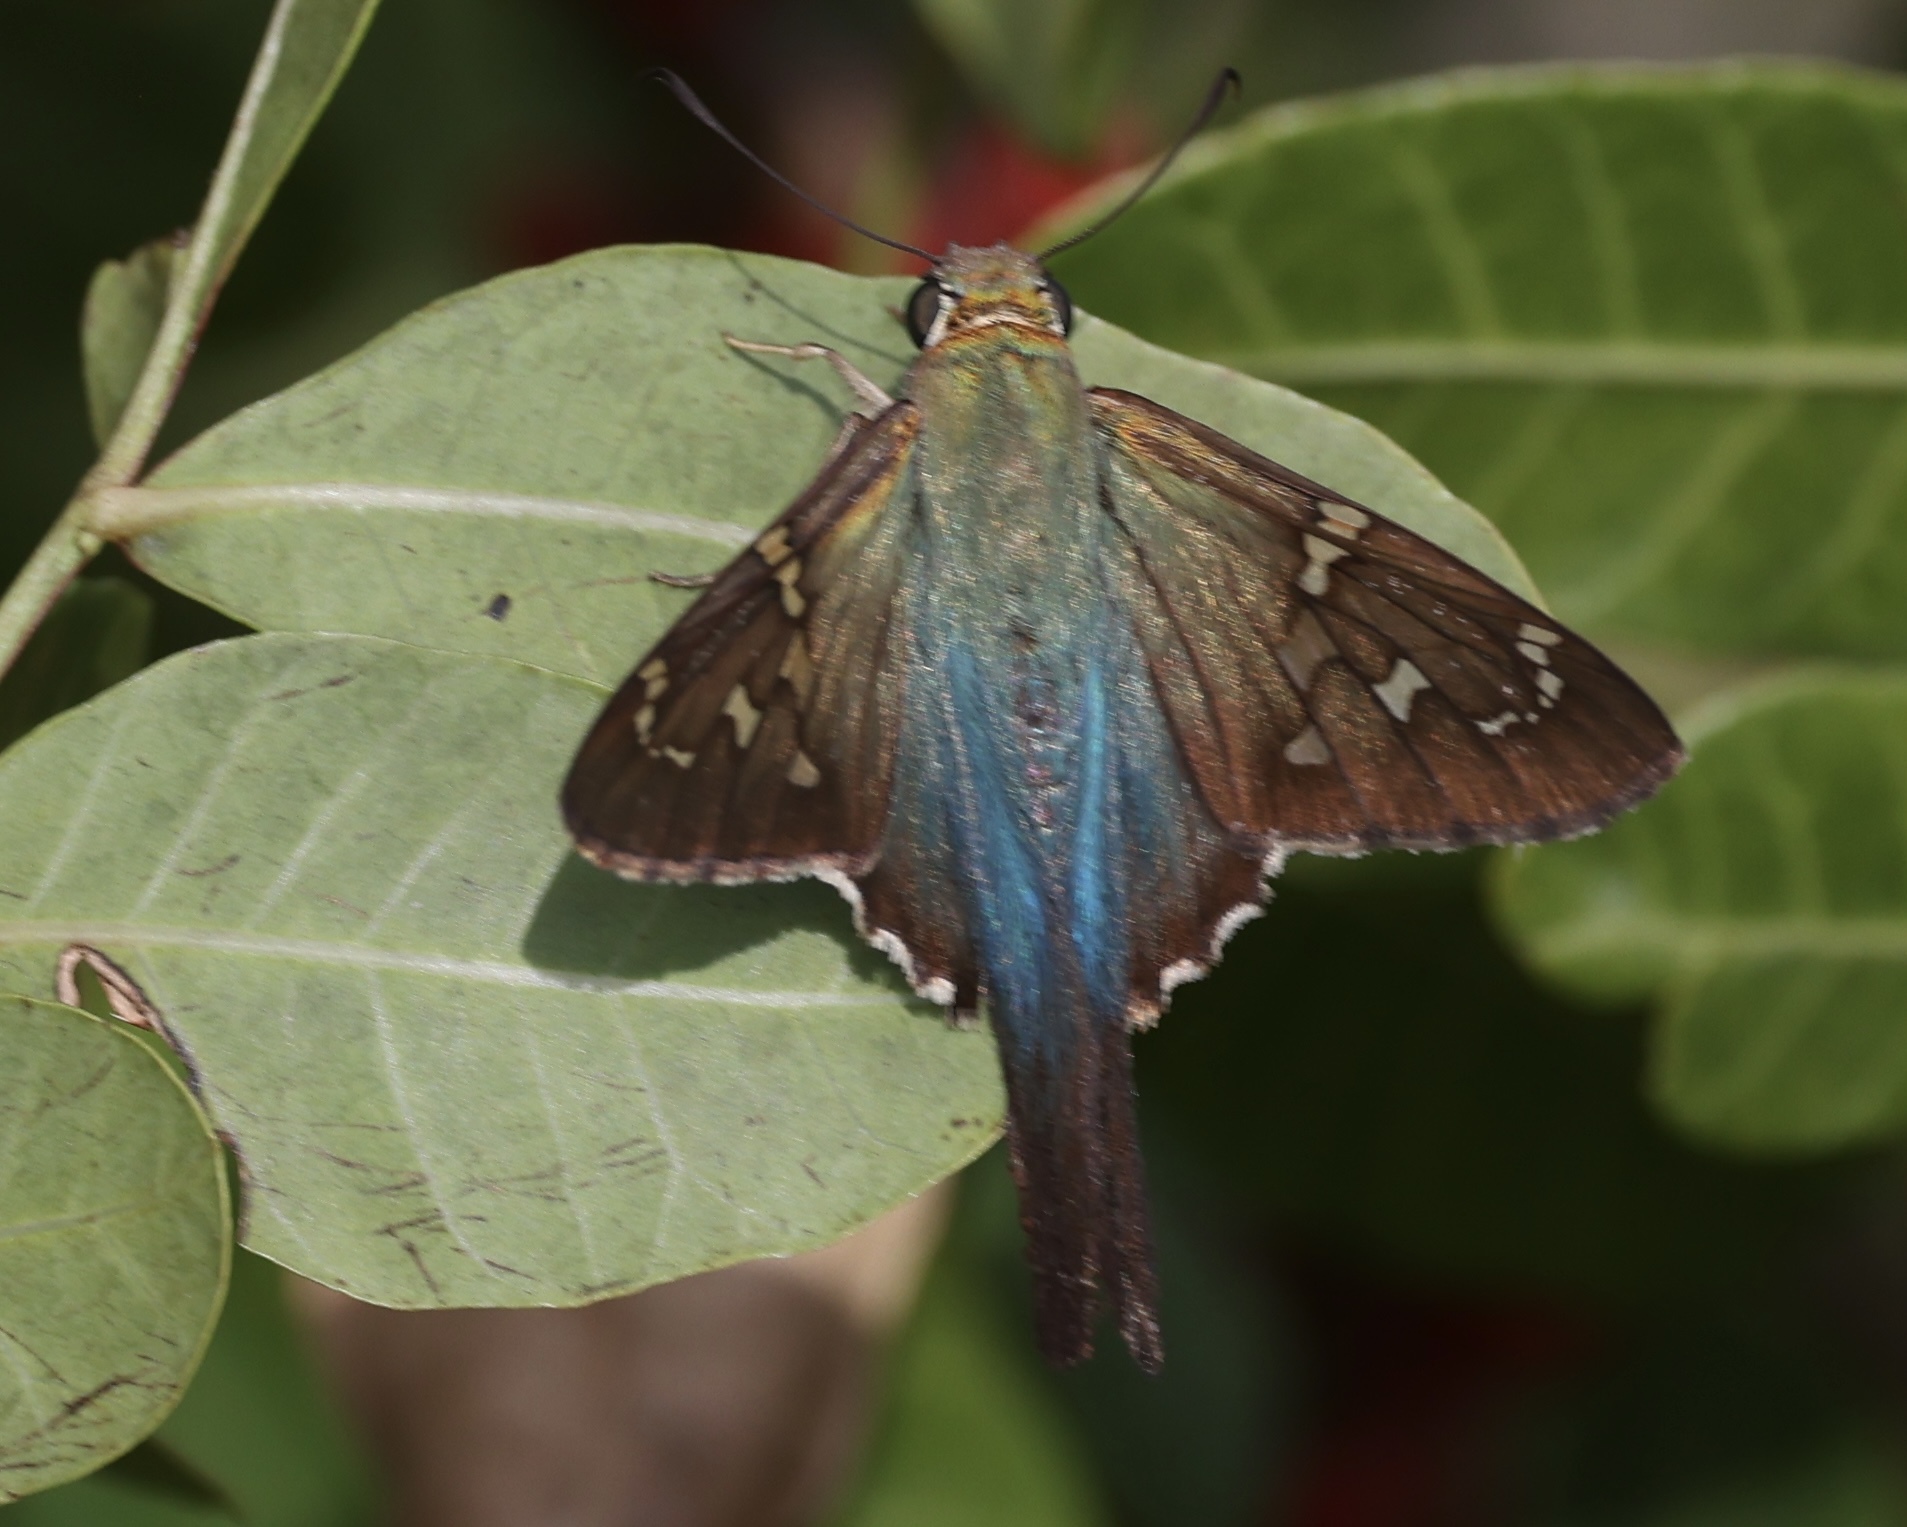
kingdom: Animalia
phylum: Arthropoda
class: Insecta
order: Lepidoptera
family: Hesperiidae
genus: Urbanus
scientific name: Urbanus proteus
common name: Long-tailed skipper
